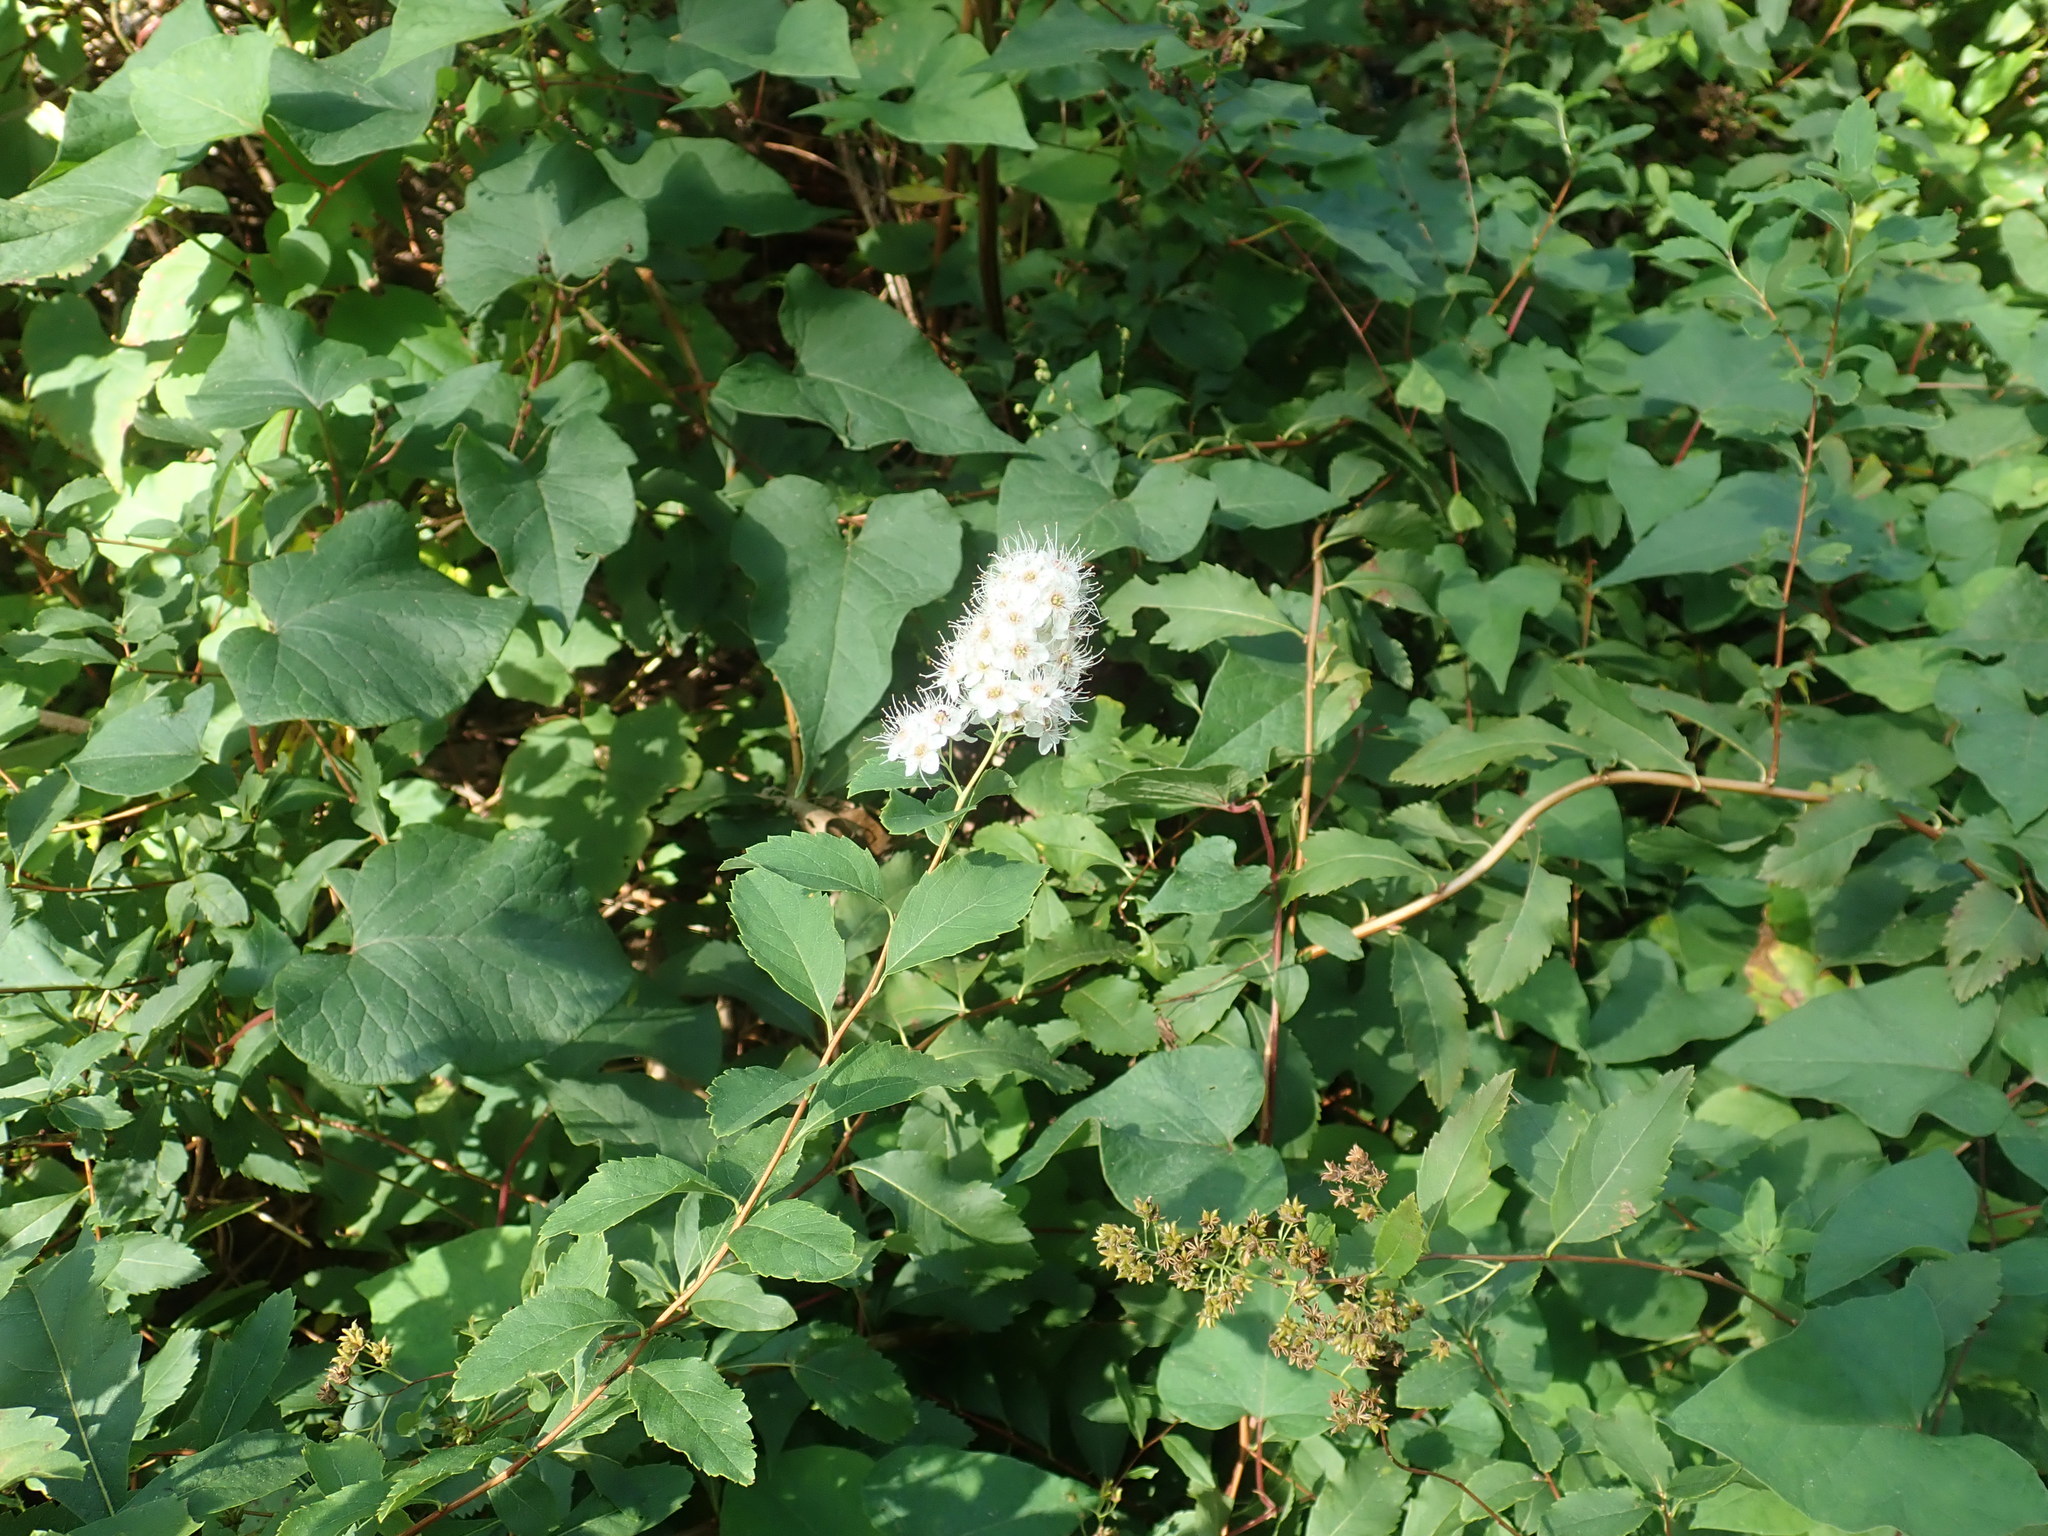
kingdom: Plantae
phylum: Tracheophyta
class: Magnoliopsida
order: Rosales
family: Rosaceae
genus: Spiraea
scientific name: Spiraea alba
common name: Pale bridewort
